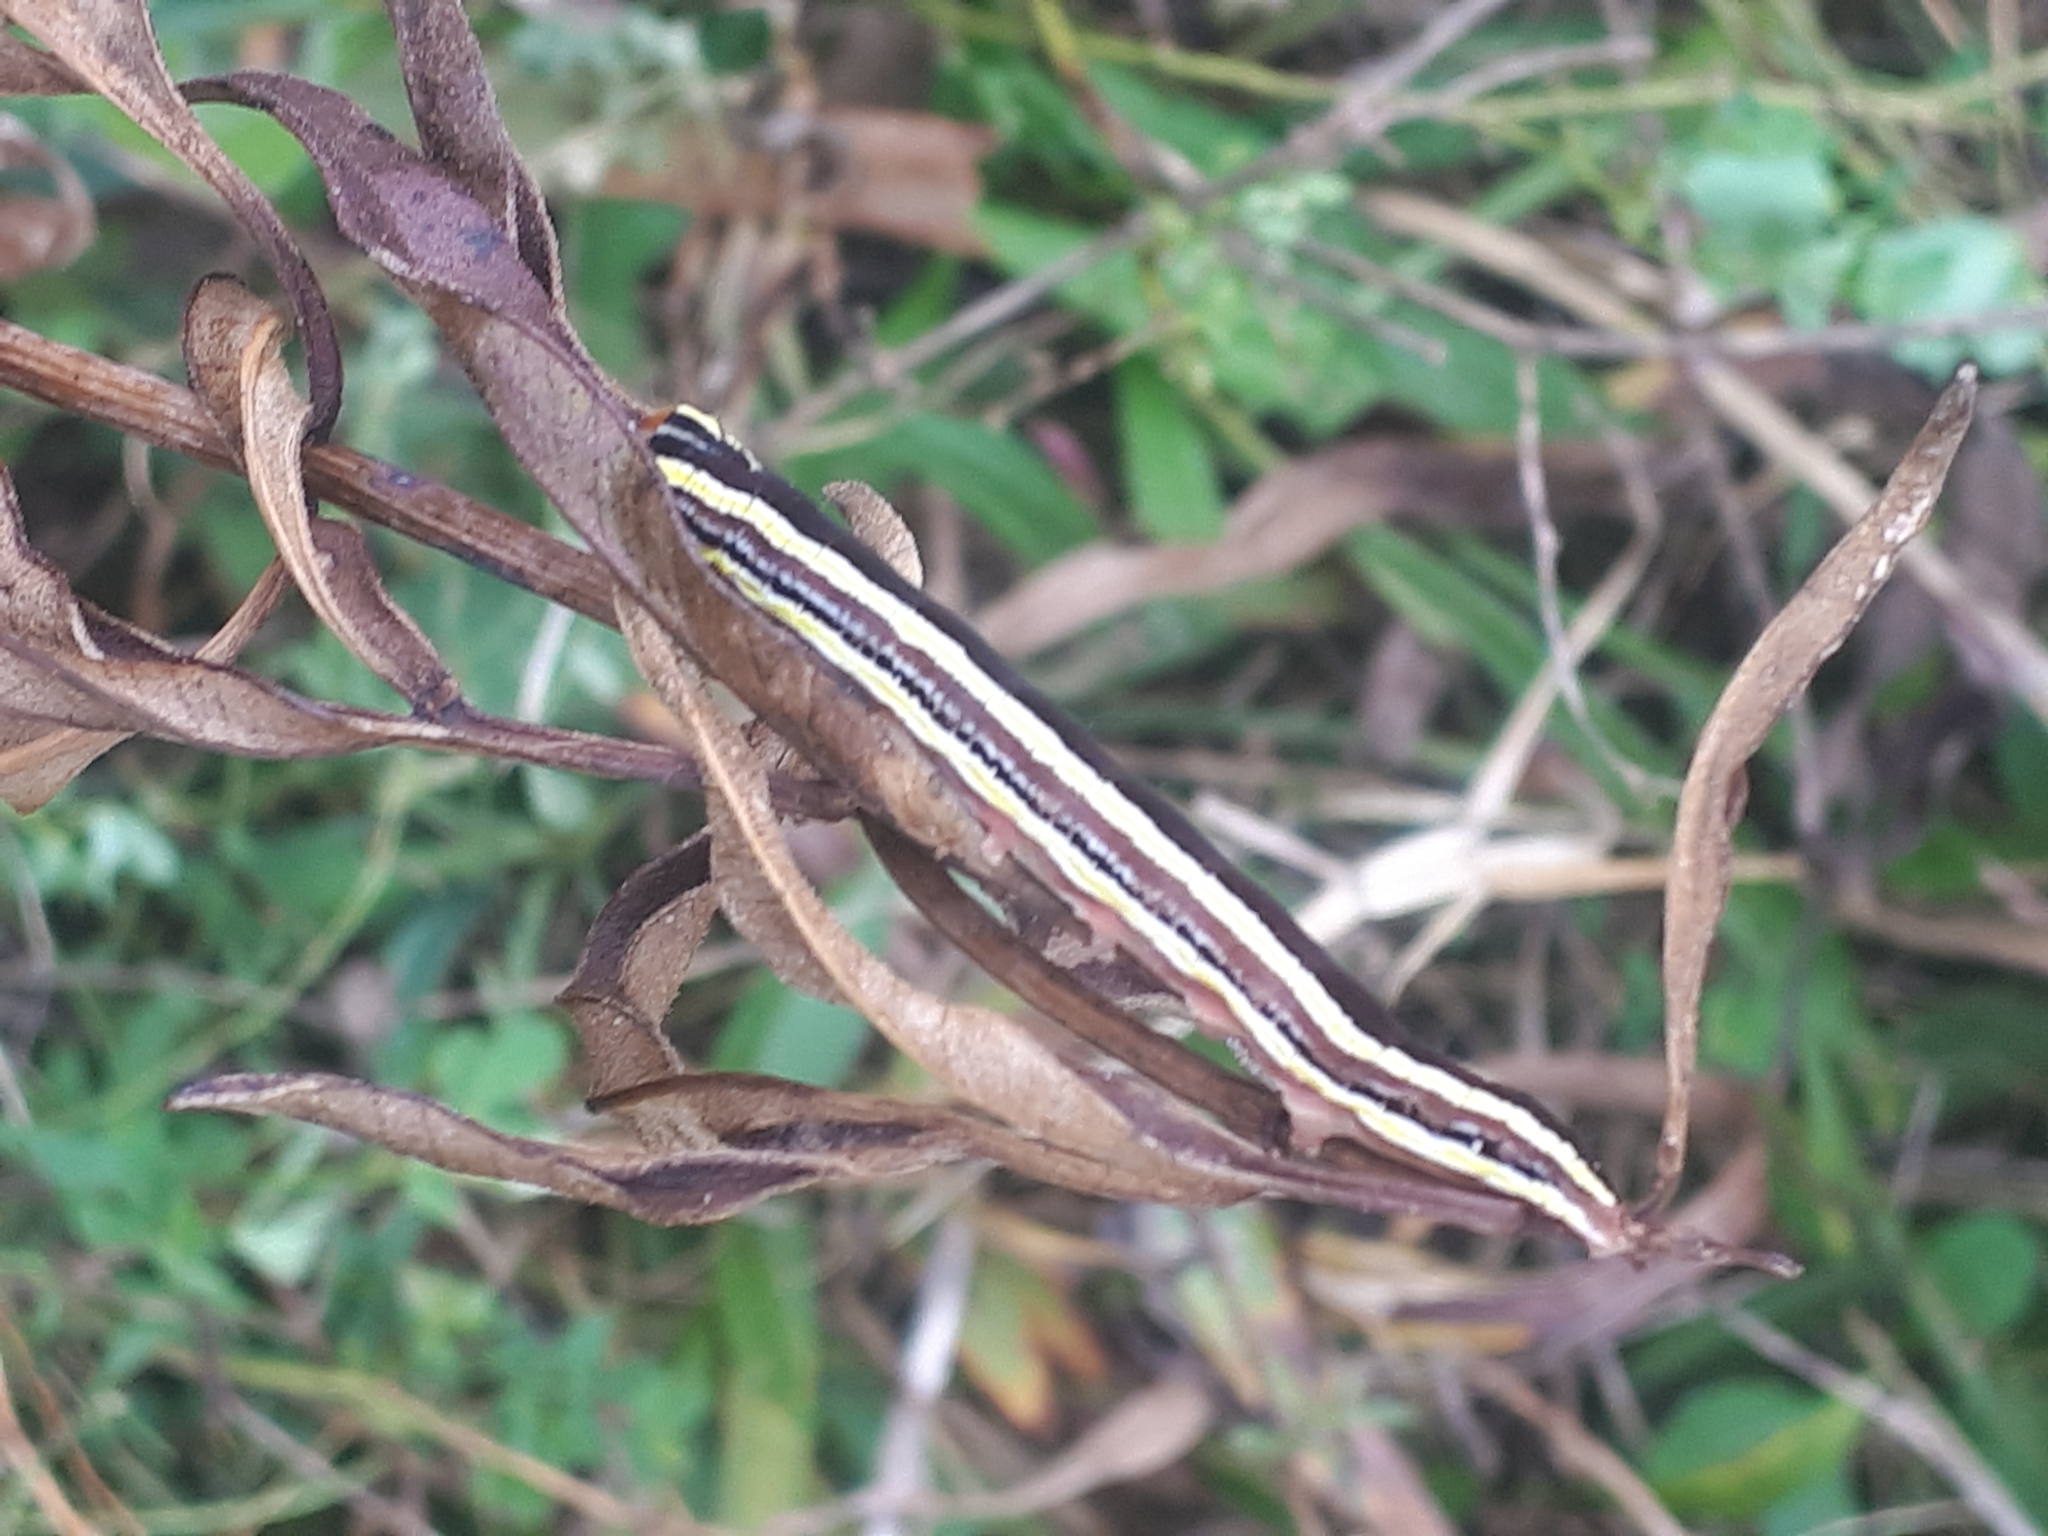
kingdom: Animalia
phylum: Arthropoda
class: Insecta
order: Lepidoptera
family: Noctuidae
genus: Trichordestra
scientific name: Trichordestra legitima
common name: Striped garden caterpillar
